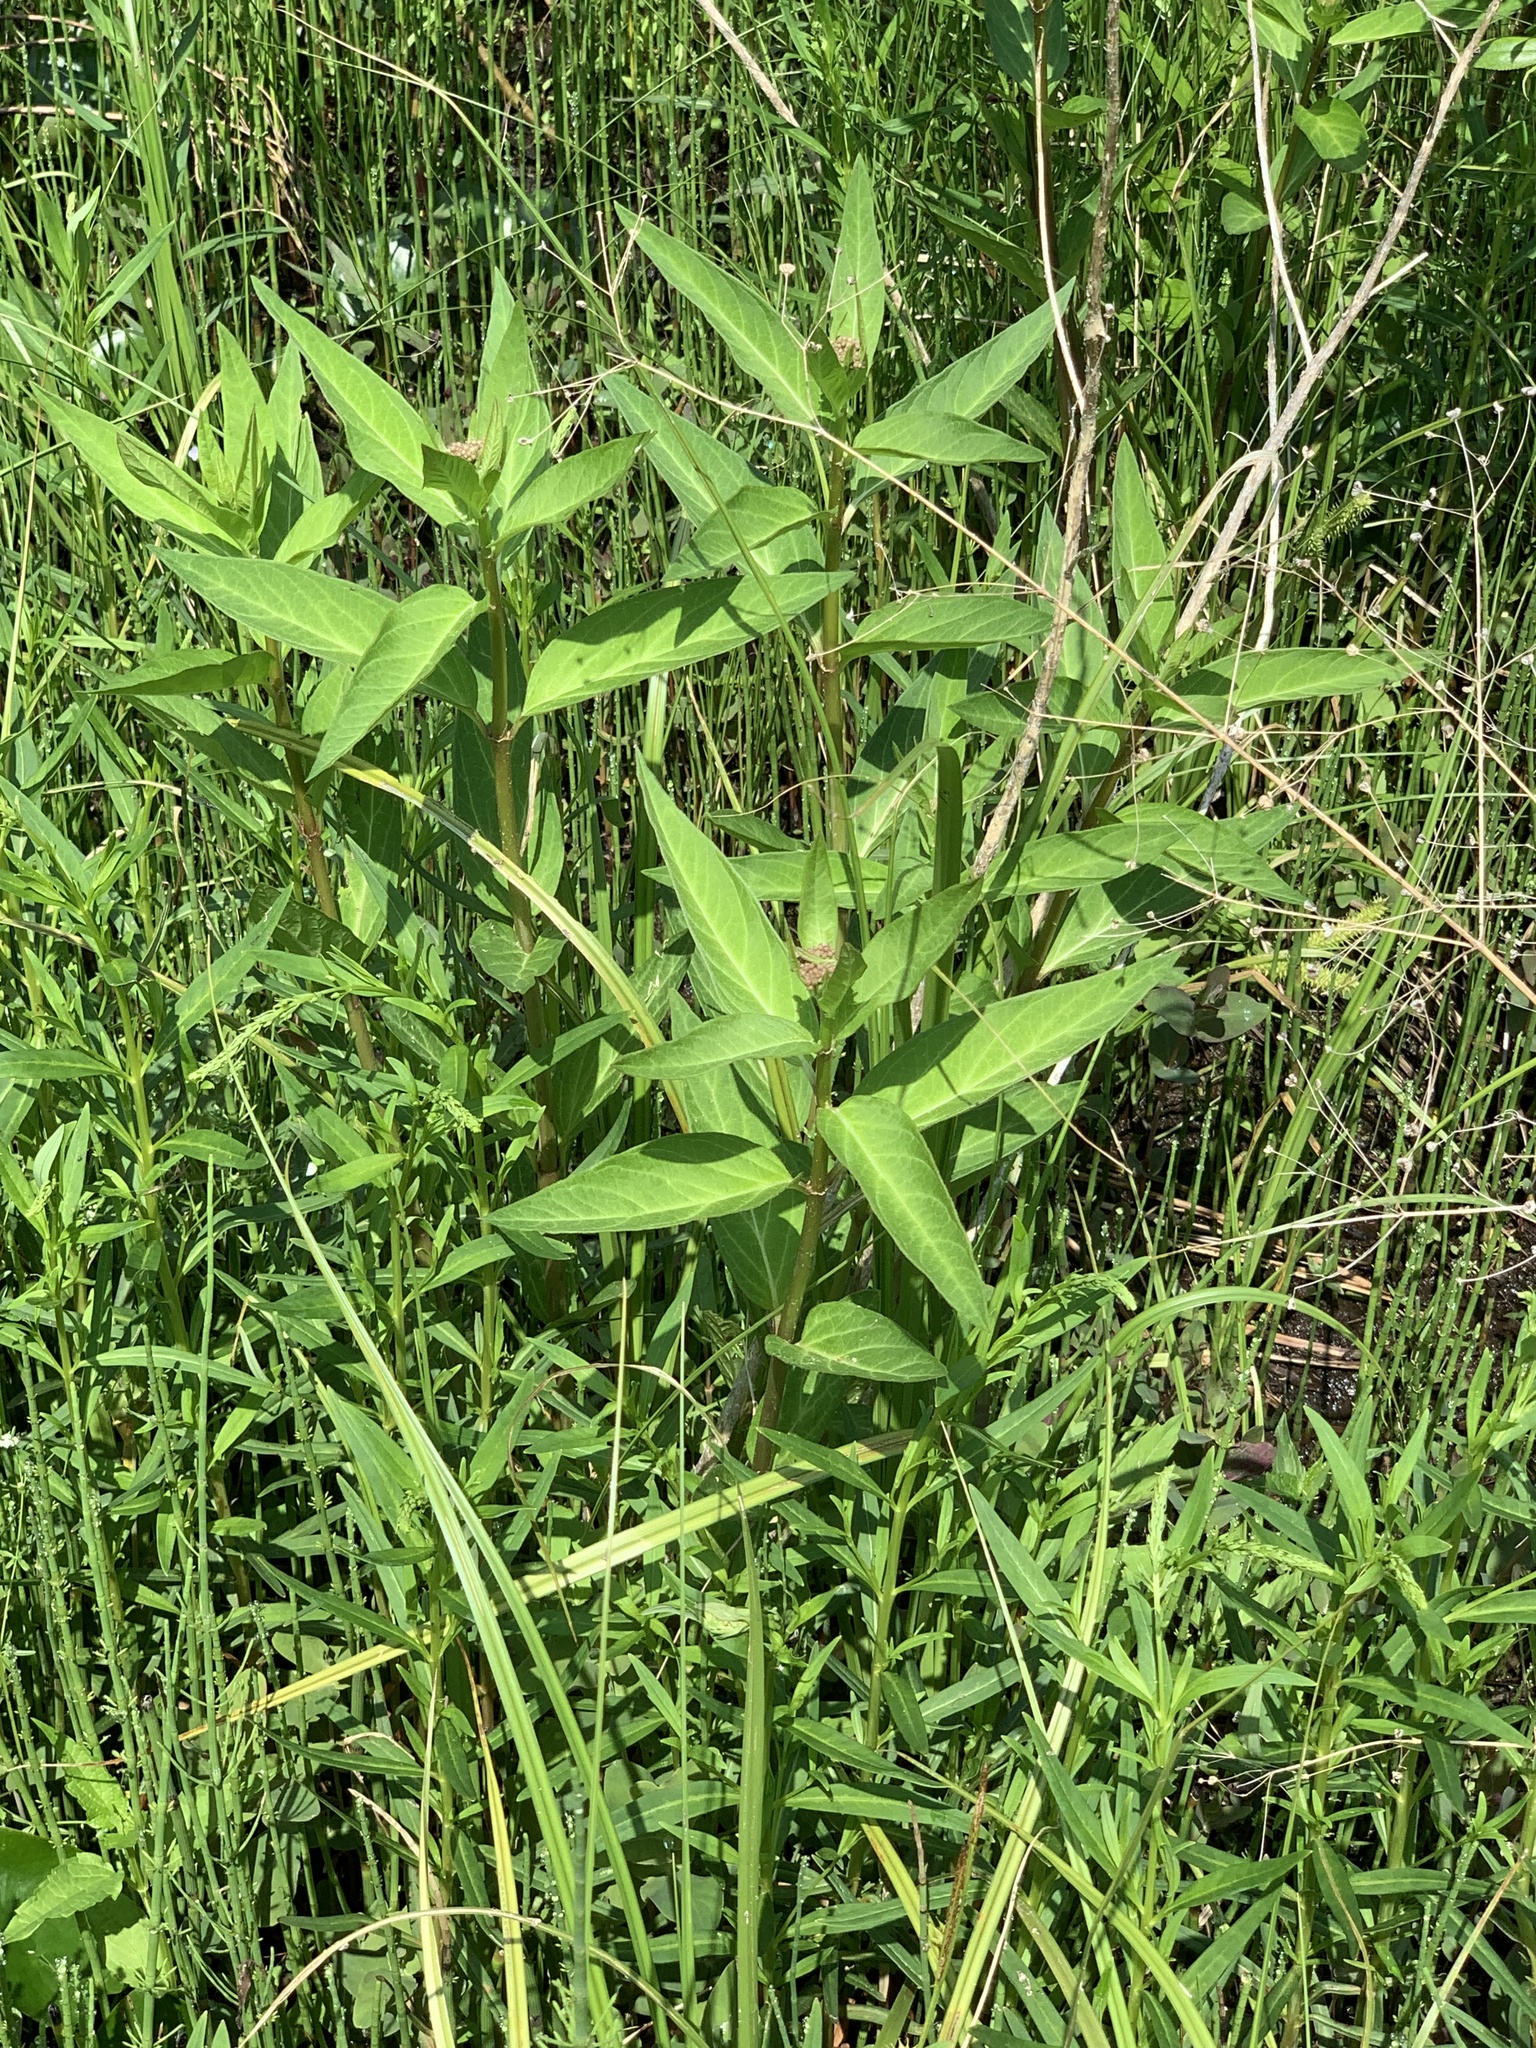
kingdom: Plantae
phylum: Tracheophyta
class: Magnoliopsida
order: Gentianales
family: Apocynaceae
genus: Asclepias
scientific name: Asclepias incarnata
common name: Swamp milkweed
